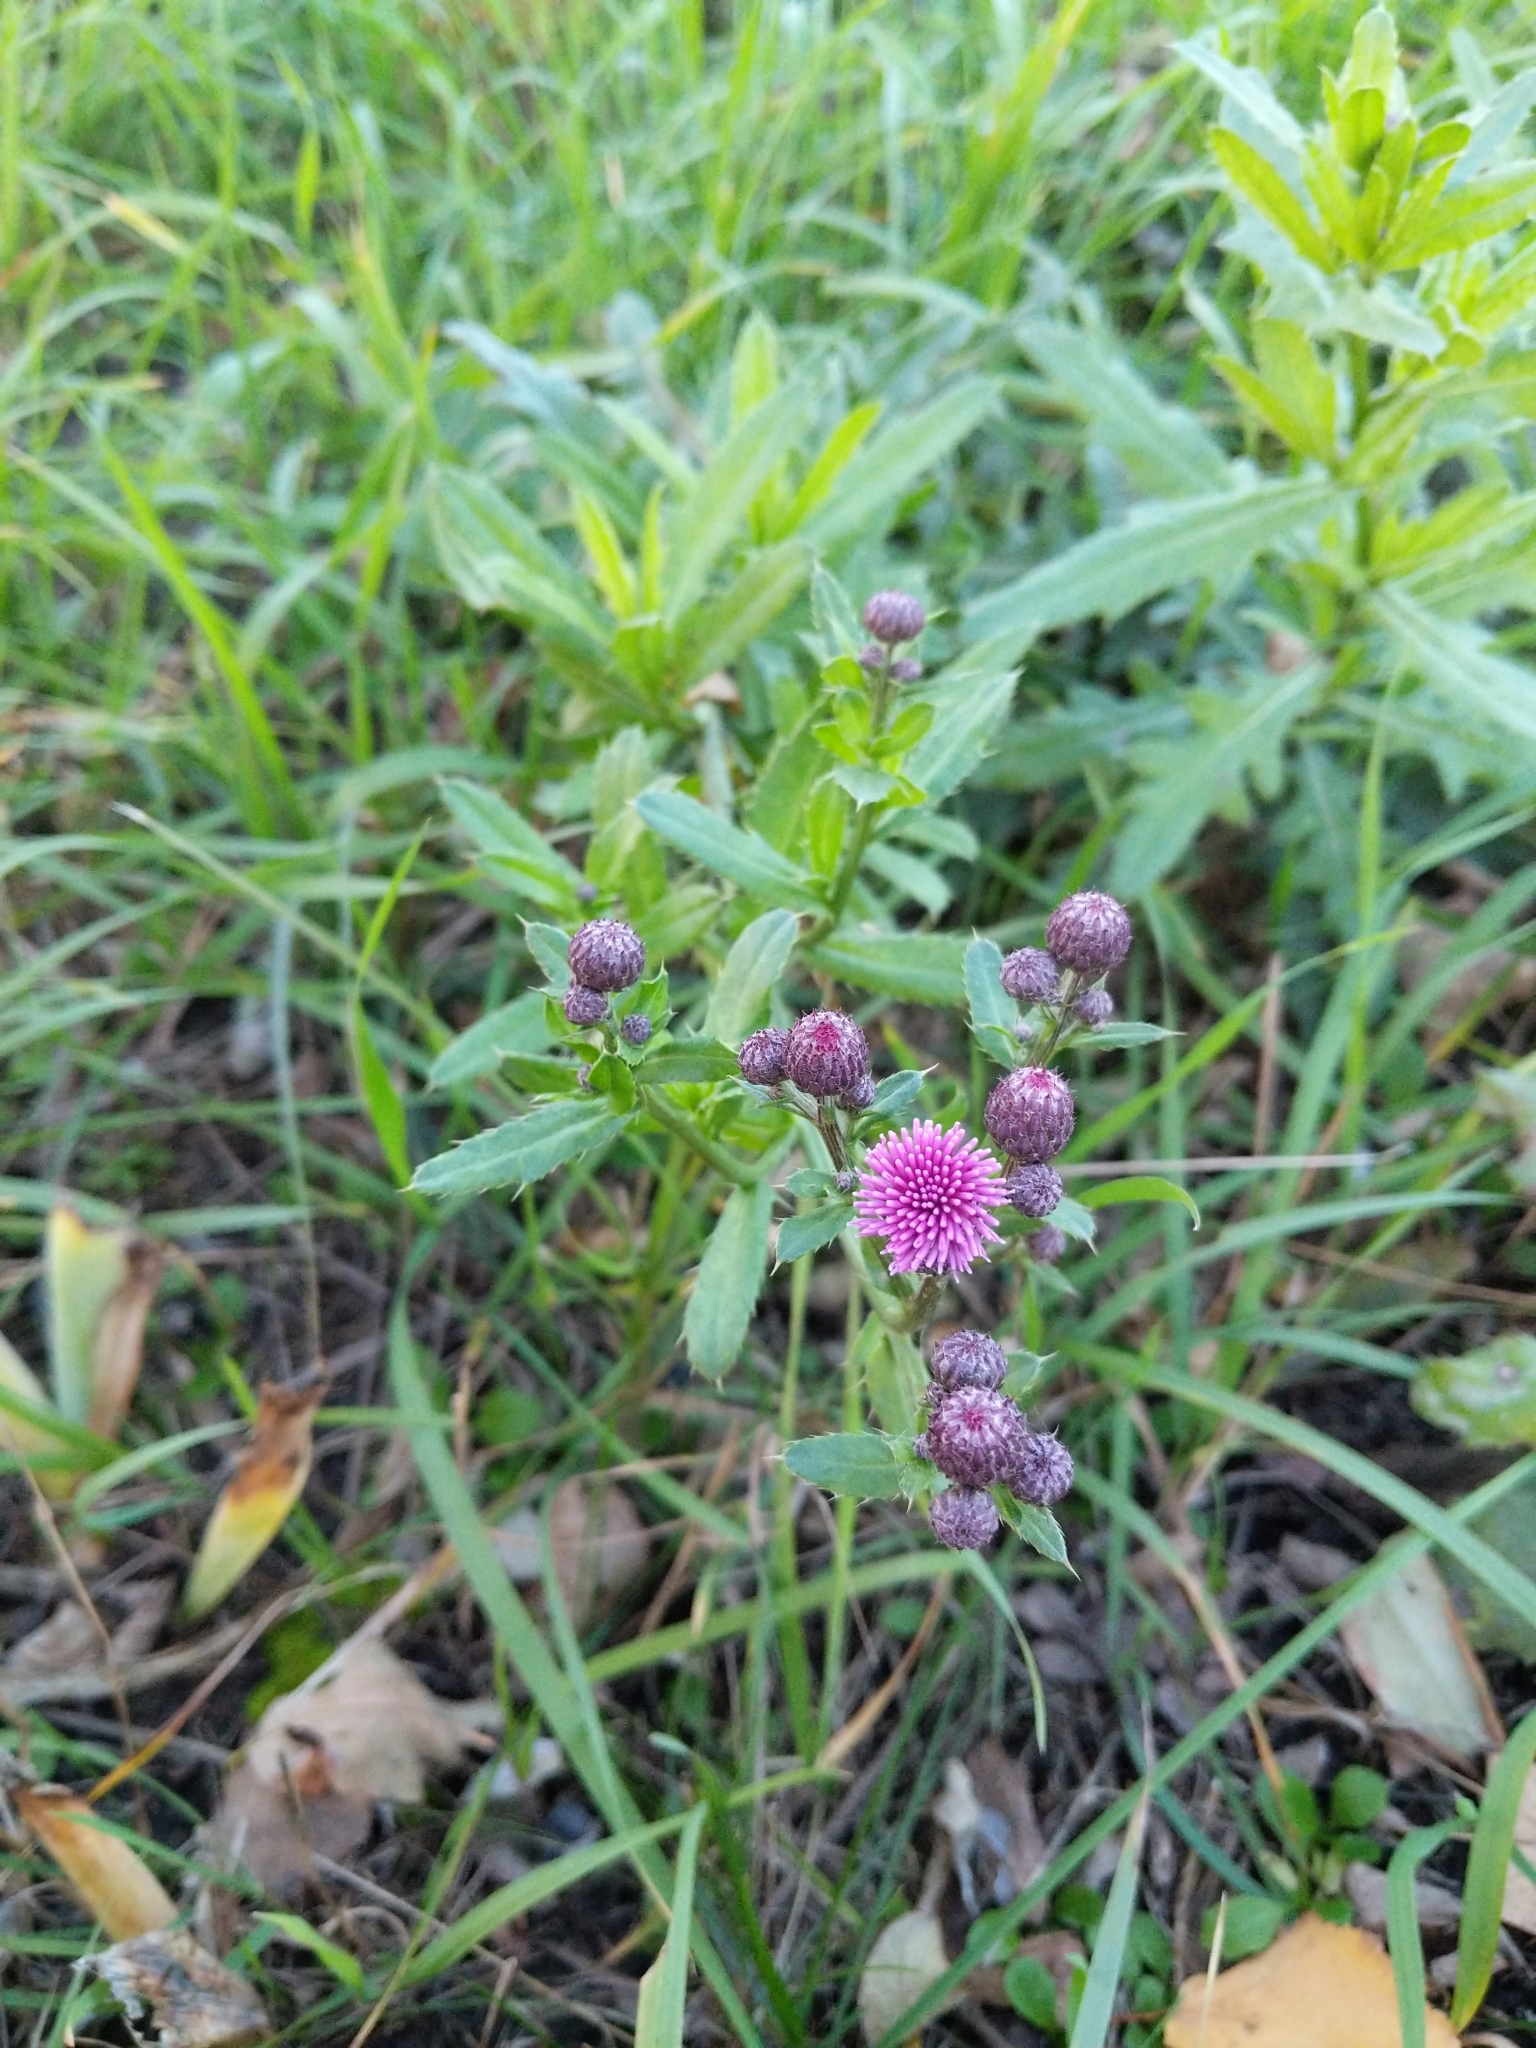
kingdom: Plantae
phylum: Tracheophyta
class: Magnoliopsida
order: Asterales
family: Asteraceae
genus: Cirsium
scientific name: Cirsium arvense
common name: Creeping thistle
